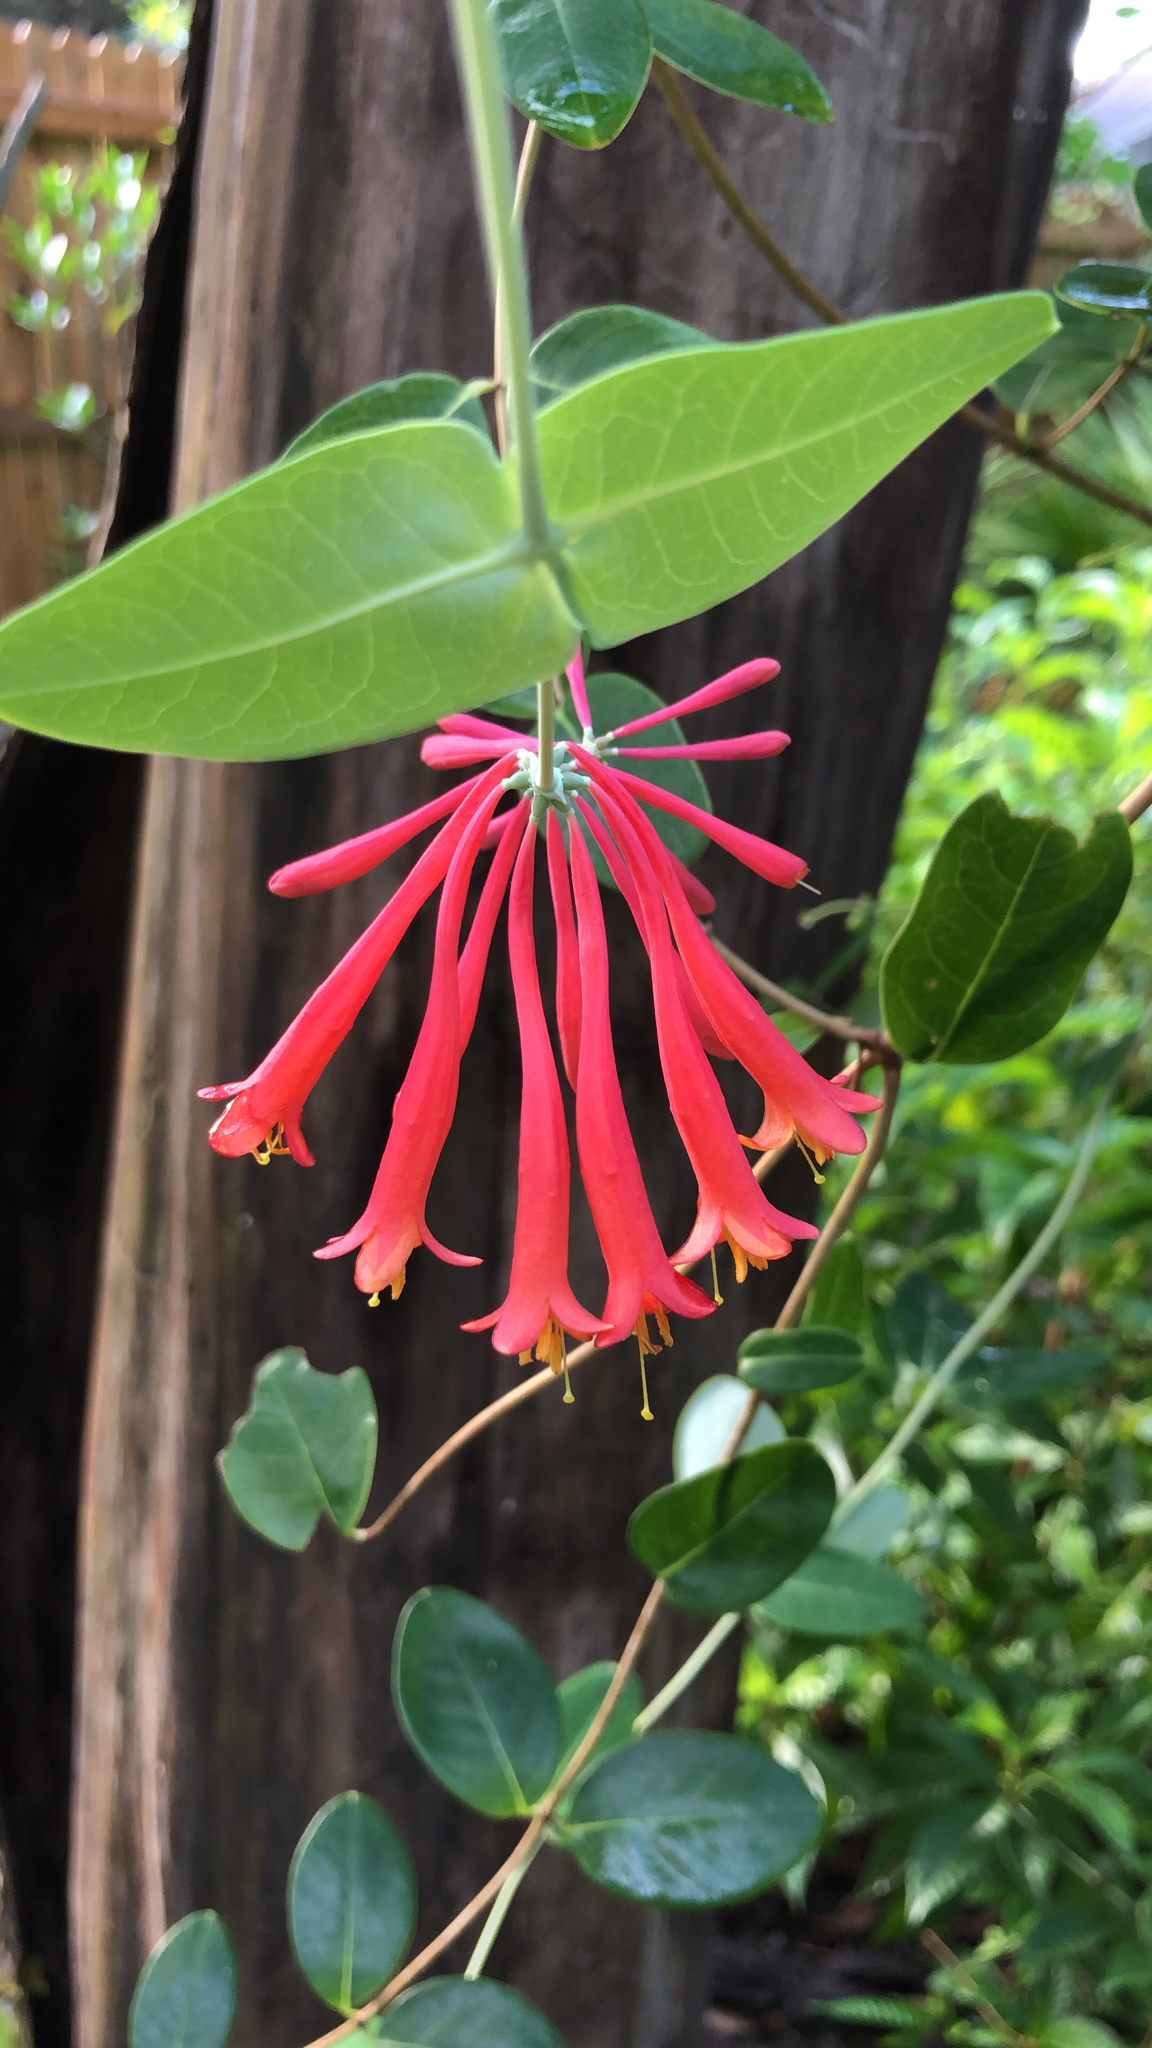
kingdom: Plantae
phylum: Tracheophyta
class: Magnoliopsida
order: Dipsacales
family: Caprifoliaceae
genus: Lonicera
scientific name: Lonicera sempervirens
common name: Coral honeysuckle
